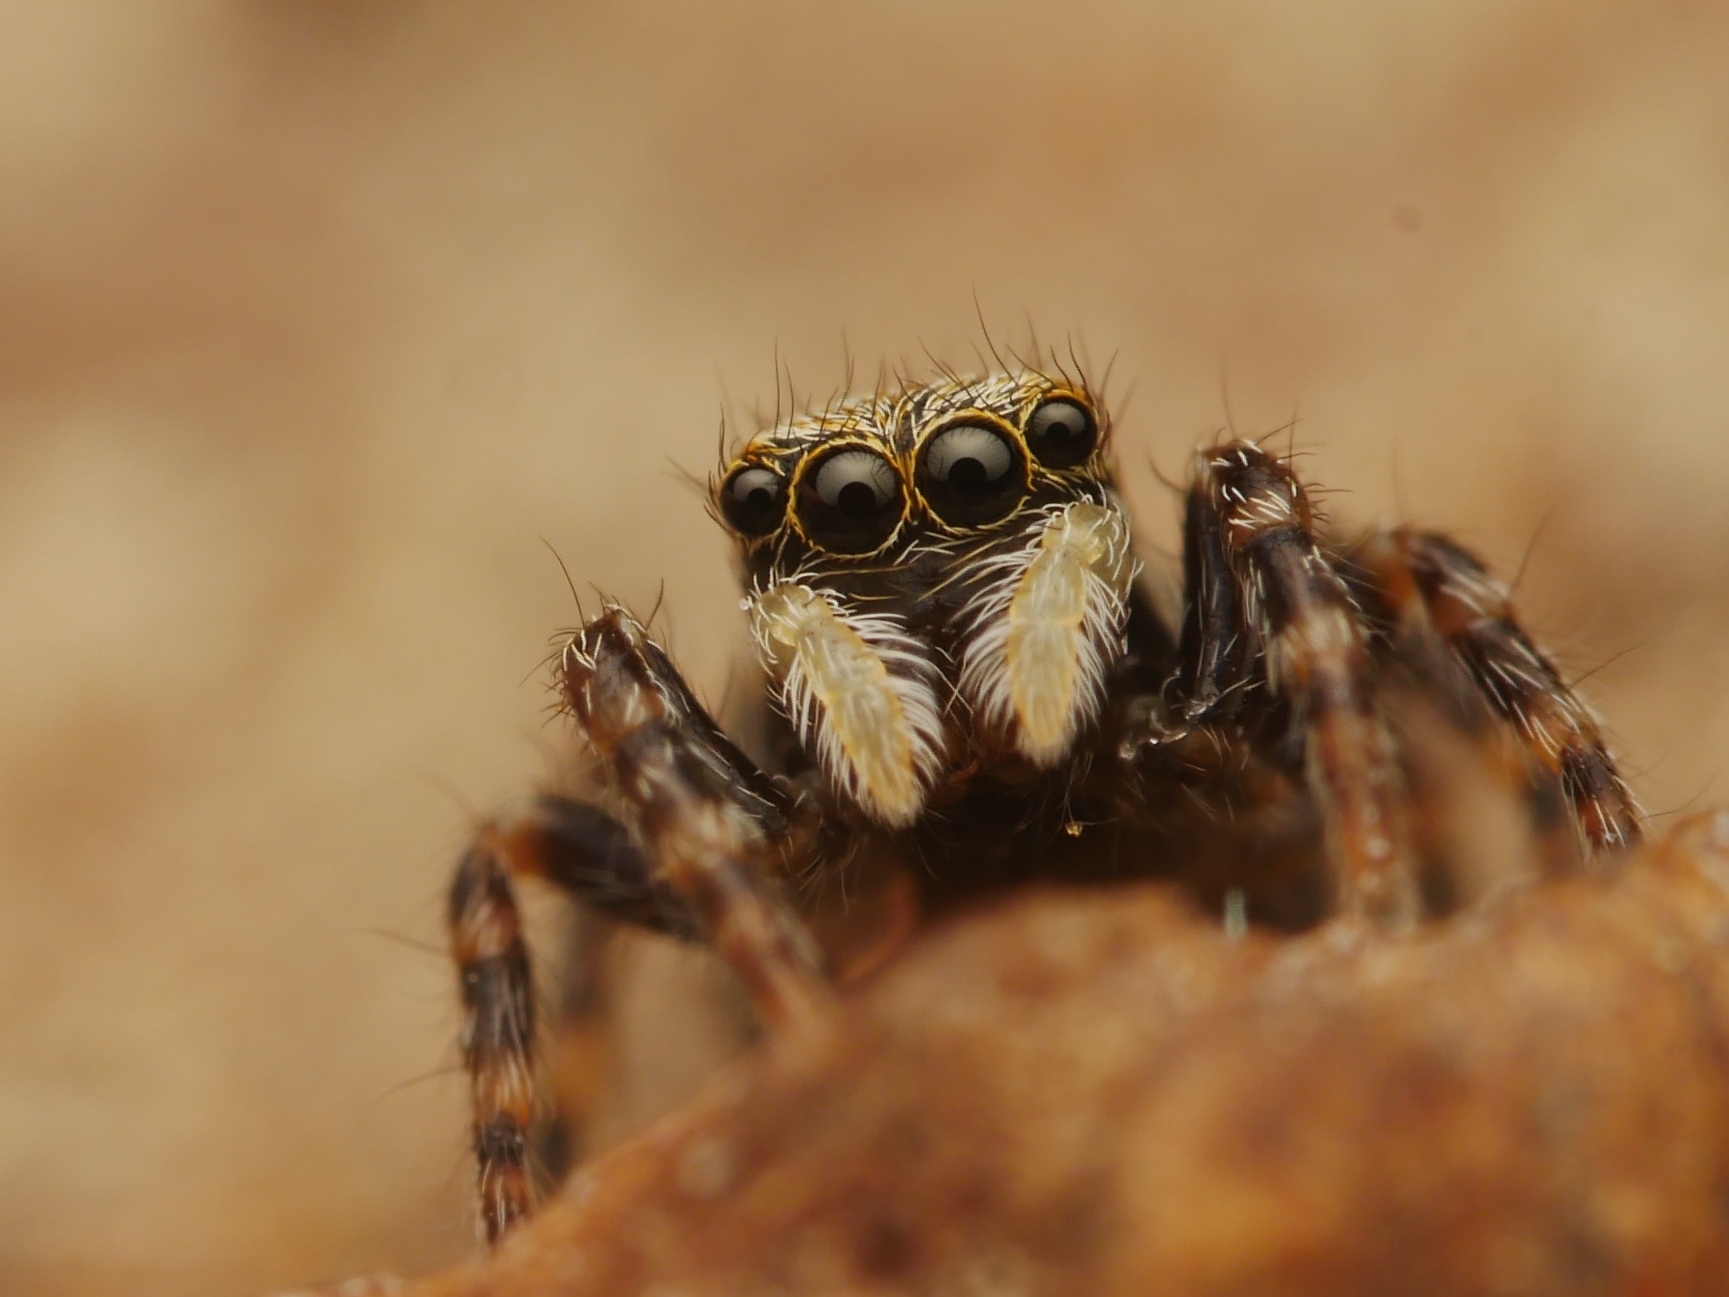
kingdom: Animalia
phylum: Arthropoda
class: Arachnida
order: Araneae
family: Salticidae
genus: Pseudeuophrys
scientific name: Pseudeuophrys lanigera
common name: Jumping spider
